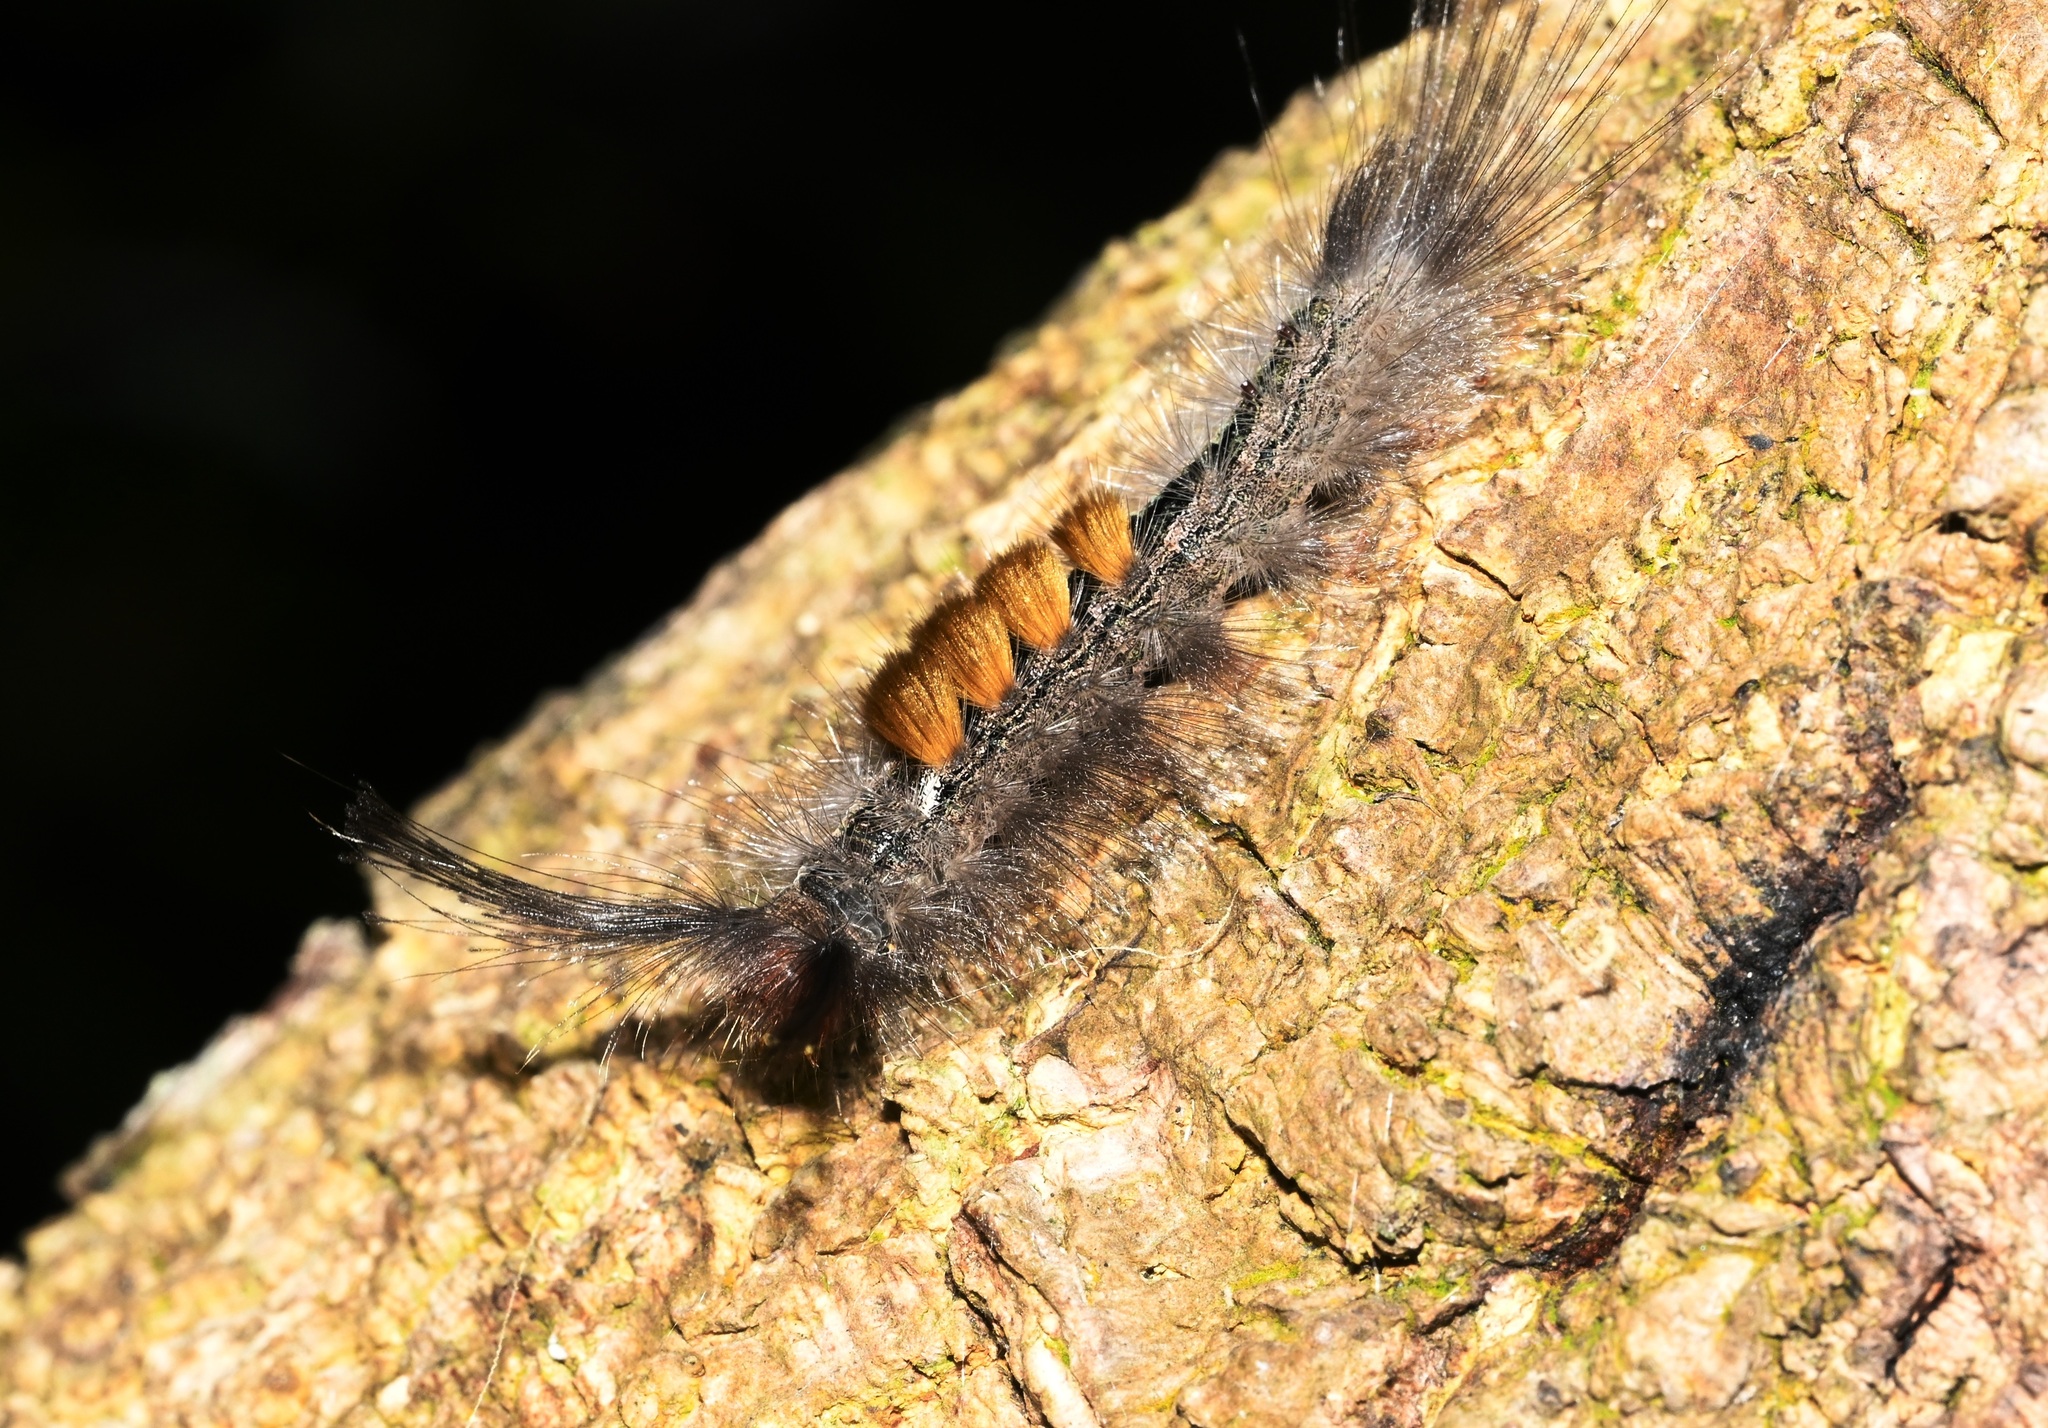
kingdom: Animalia
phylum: Arthropoda
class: Insecta
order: Lepidoptera
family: Erebidae
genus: Dasychira
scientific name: Dasychira chekiangensis
